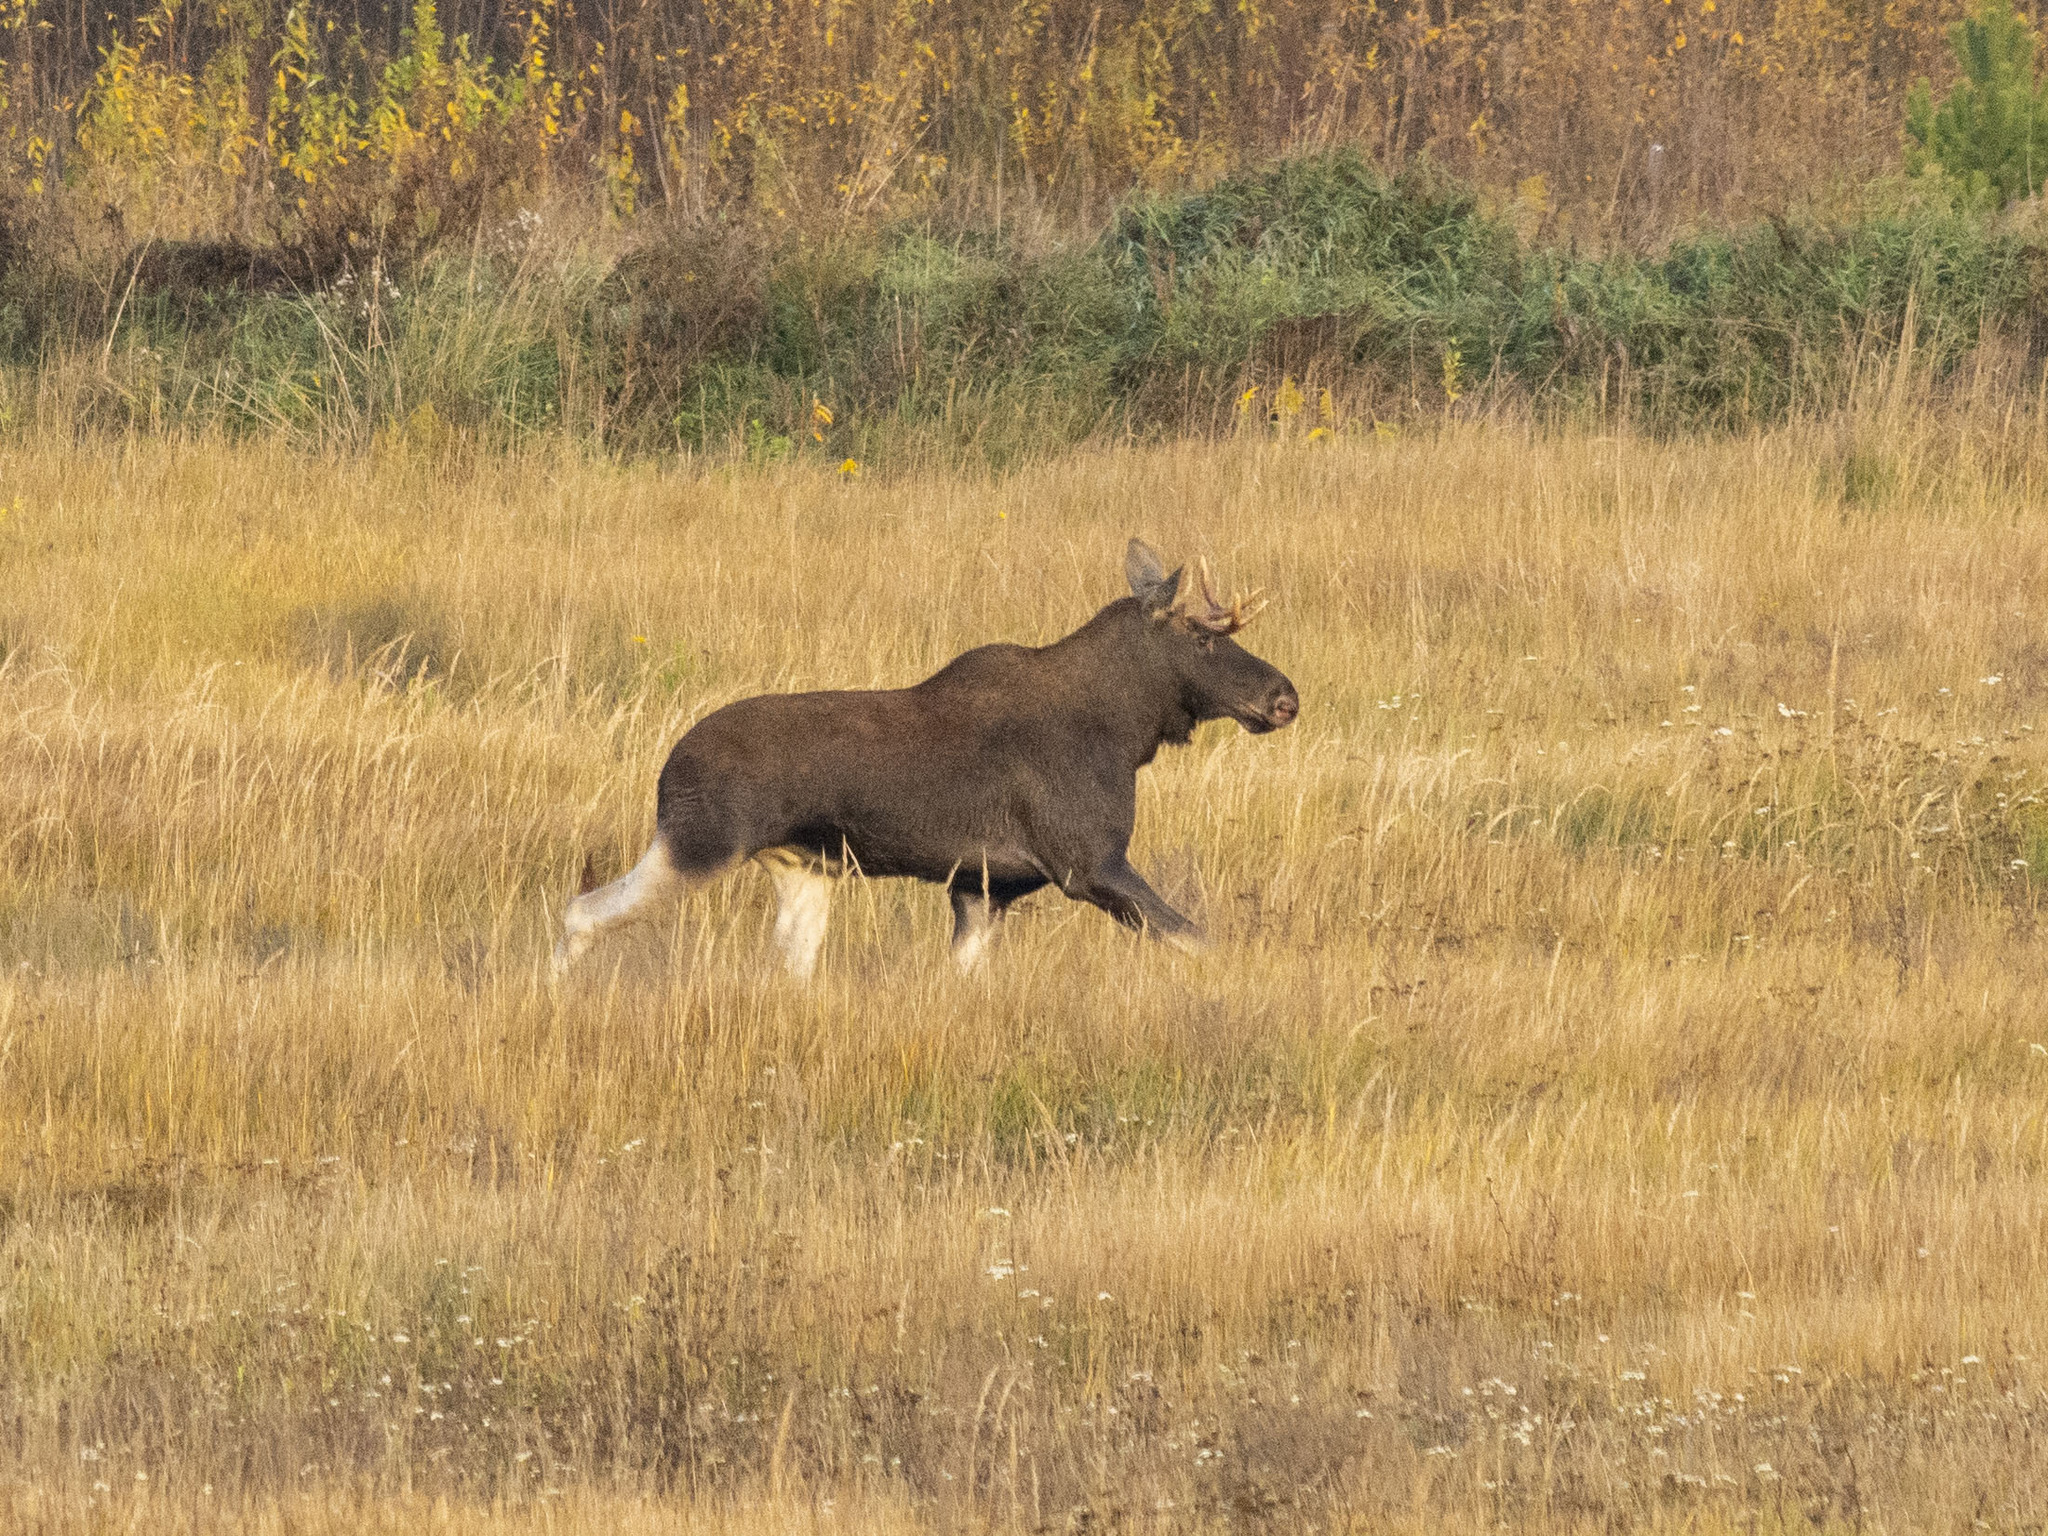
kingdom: Animalia
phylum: Chordata
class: Mammalia
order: Artiodactyla
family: Cervidae
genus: Alces
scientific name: Alces alces
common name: Moose
